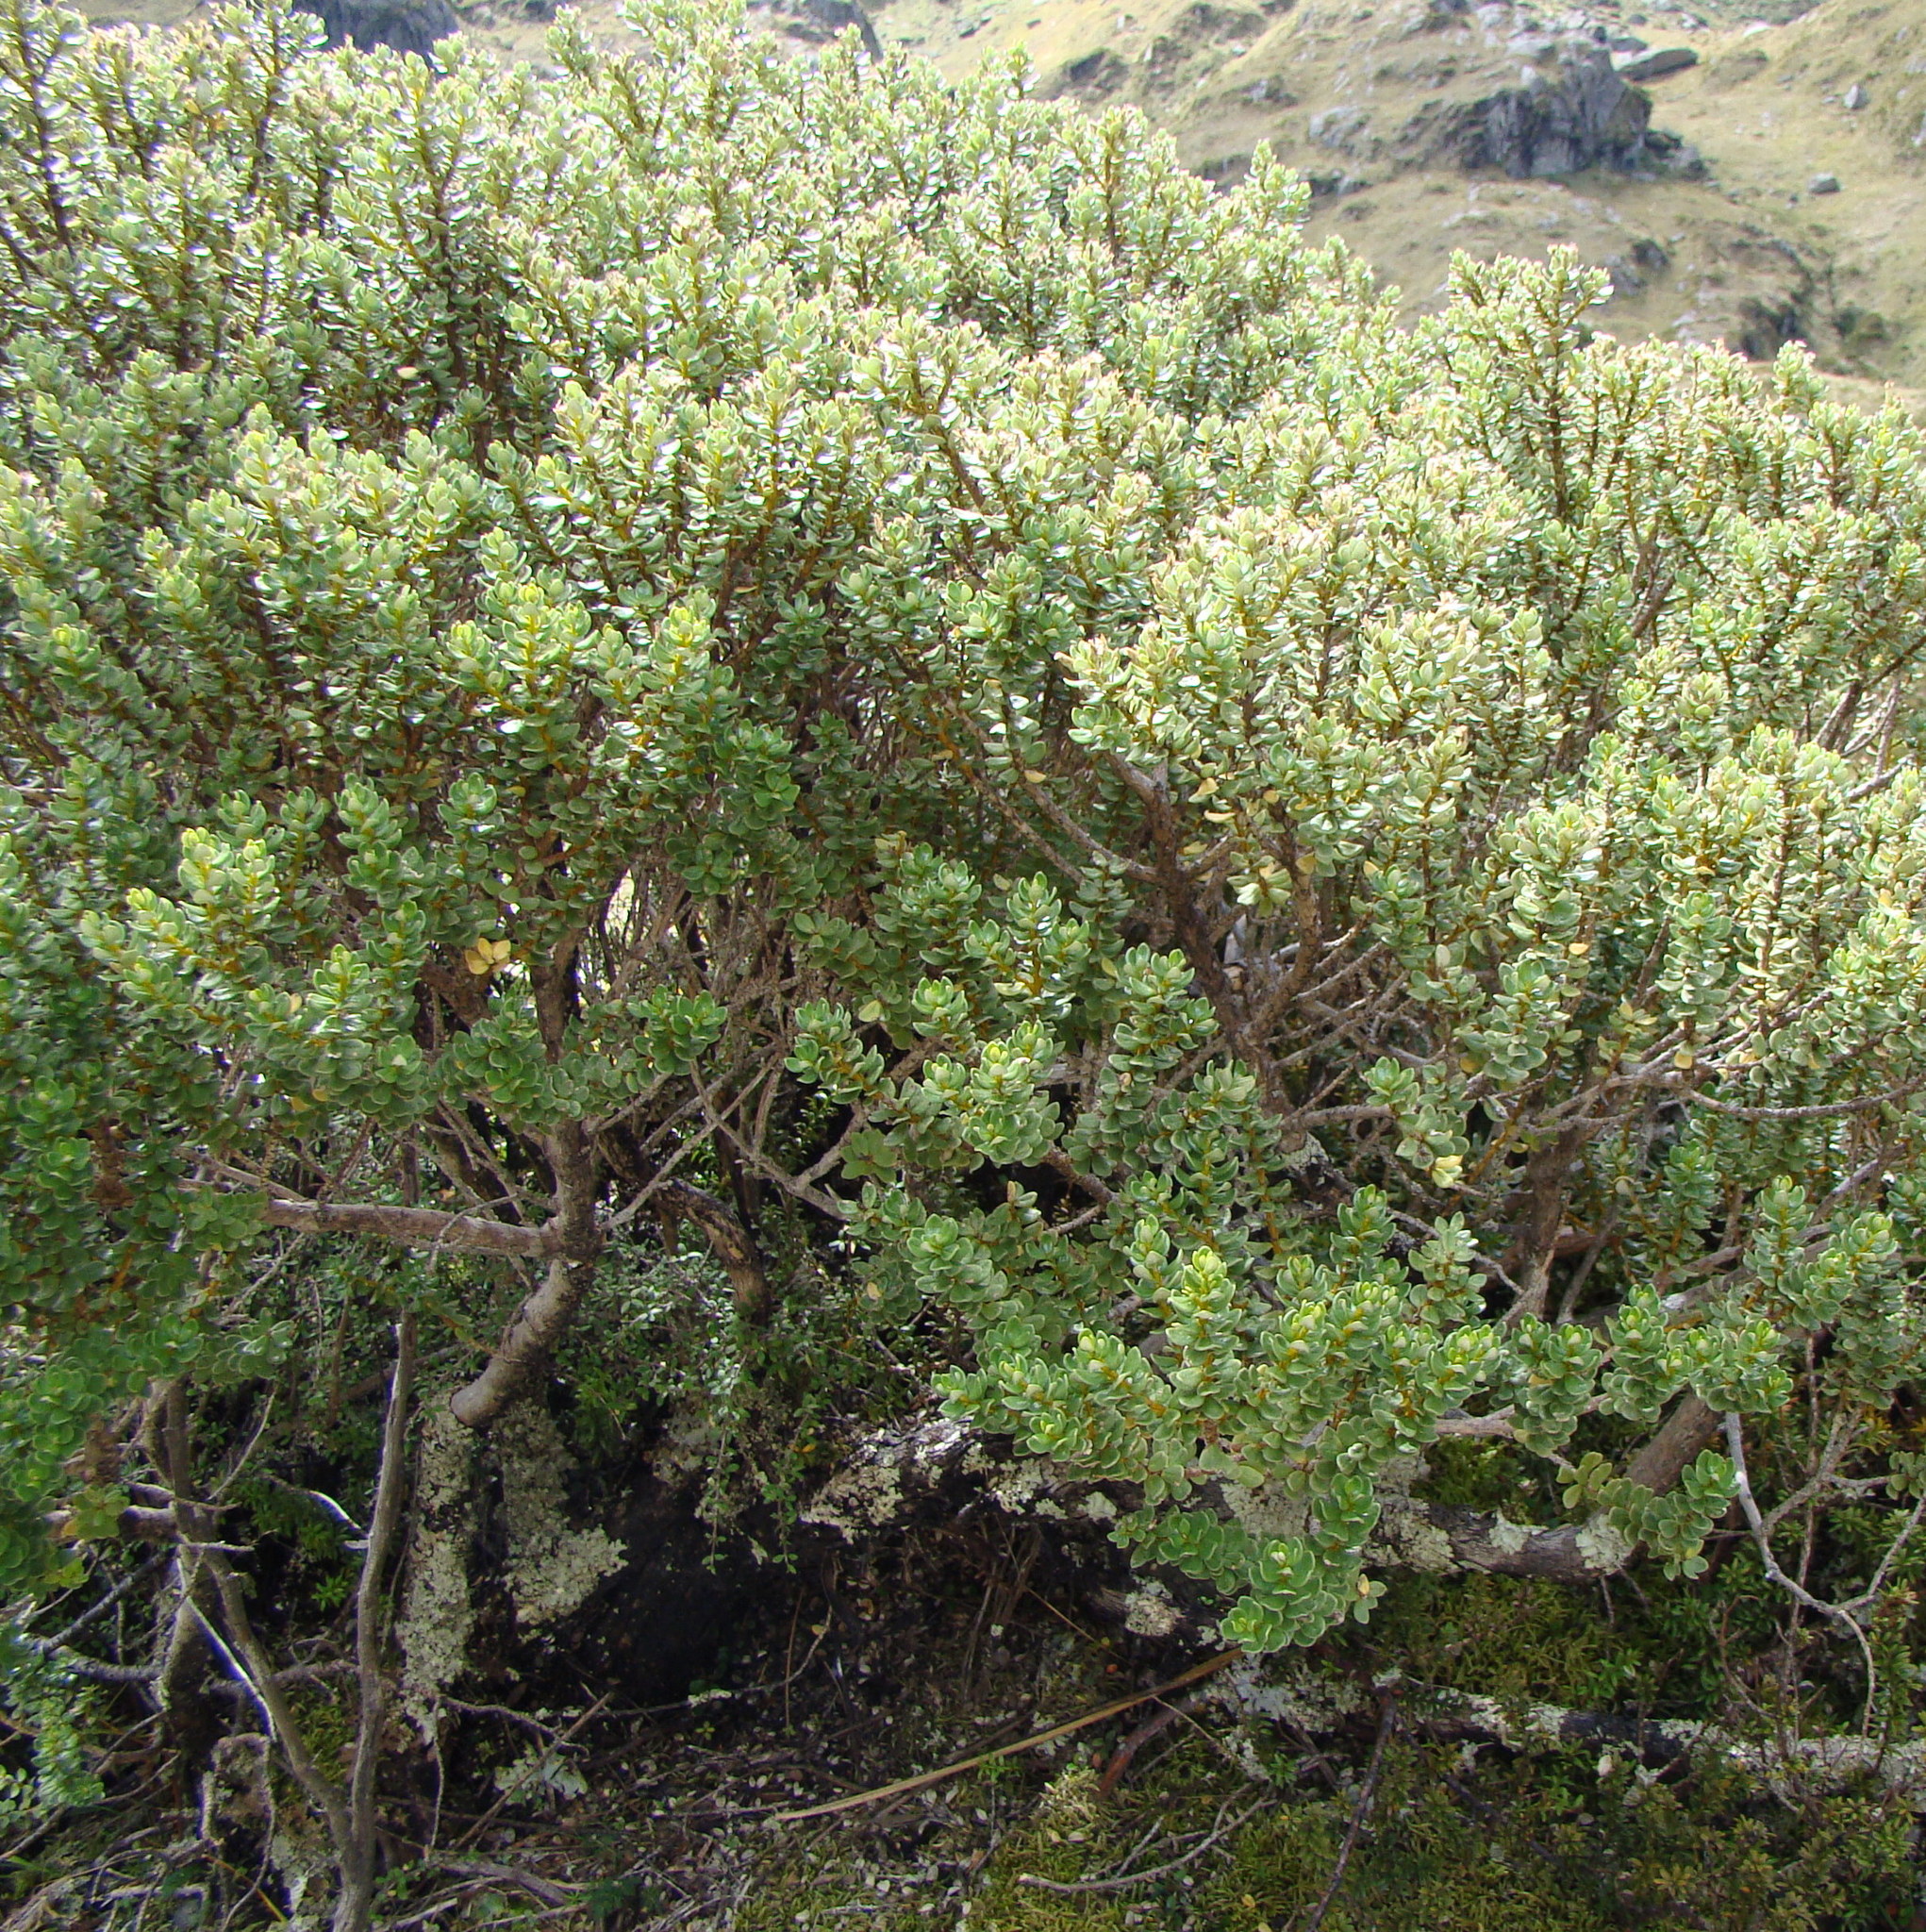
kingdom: Plantae
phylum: Tracheophyta
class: Magnoliopsida
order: Asterales
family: Asteraceae
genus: Olearia
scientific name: Olearia nummularifolia
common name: Sticky daisybush
